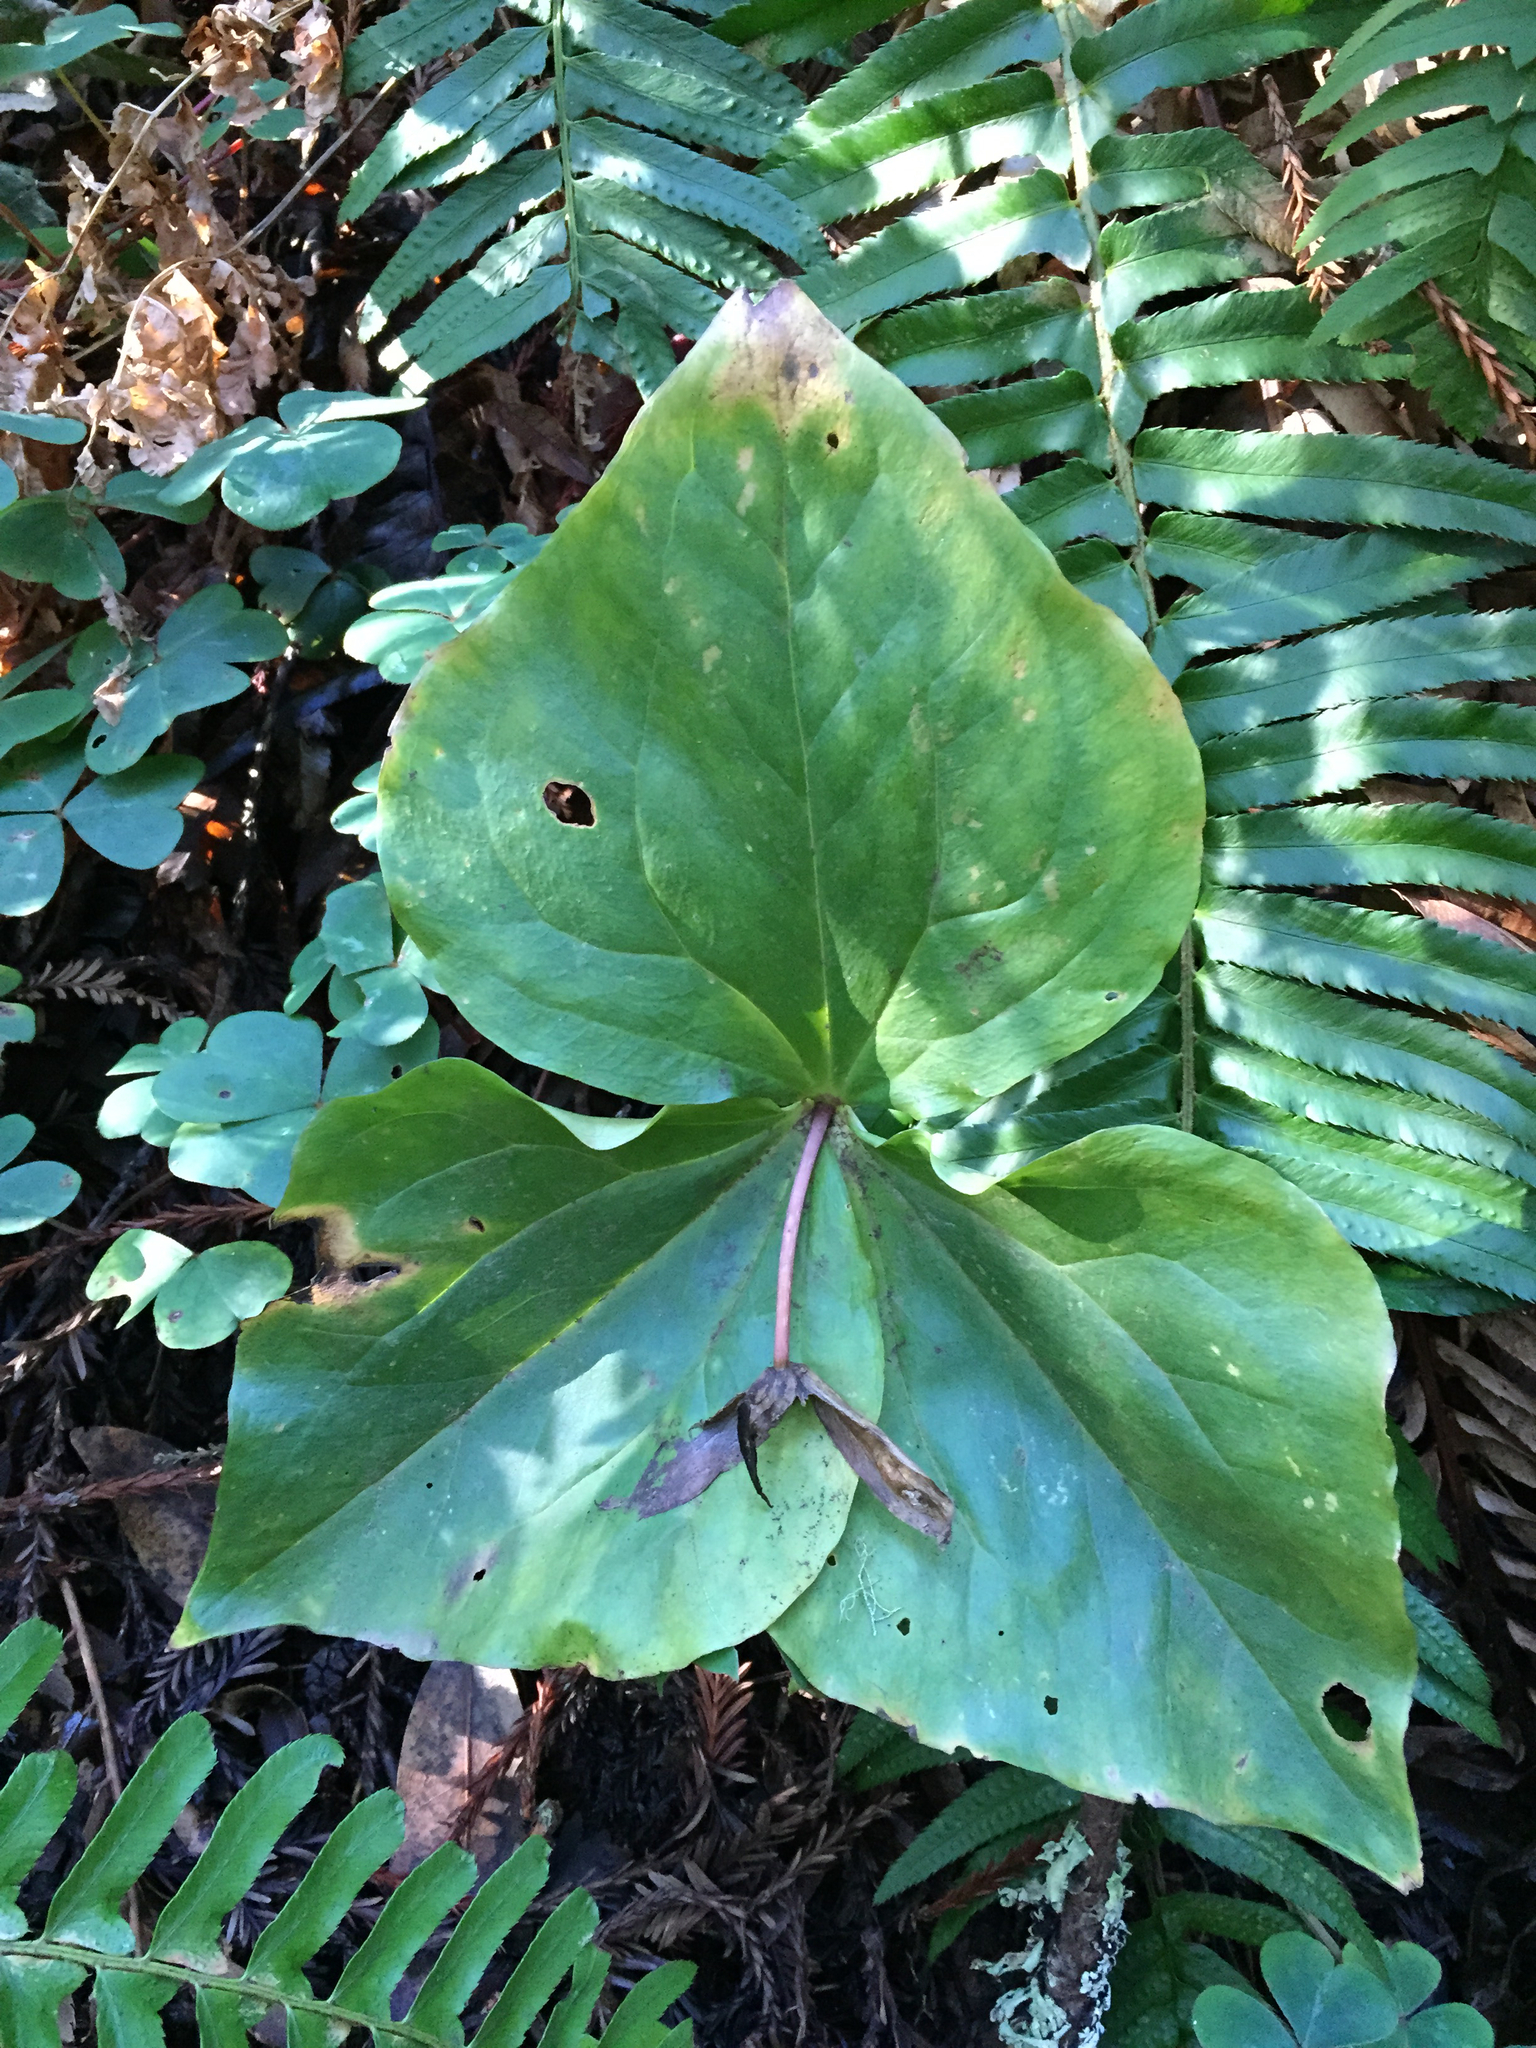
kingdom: Plantae
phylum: Tracheophyta
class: Liliopsida
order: Liliales
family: Melanthiaceae
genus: Trillium
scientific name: Trillium ovatum
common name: Pacific trillium
